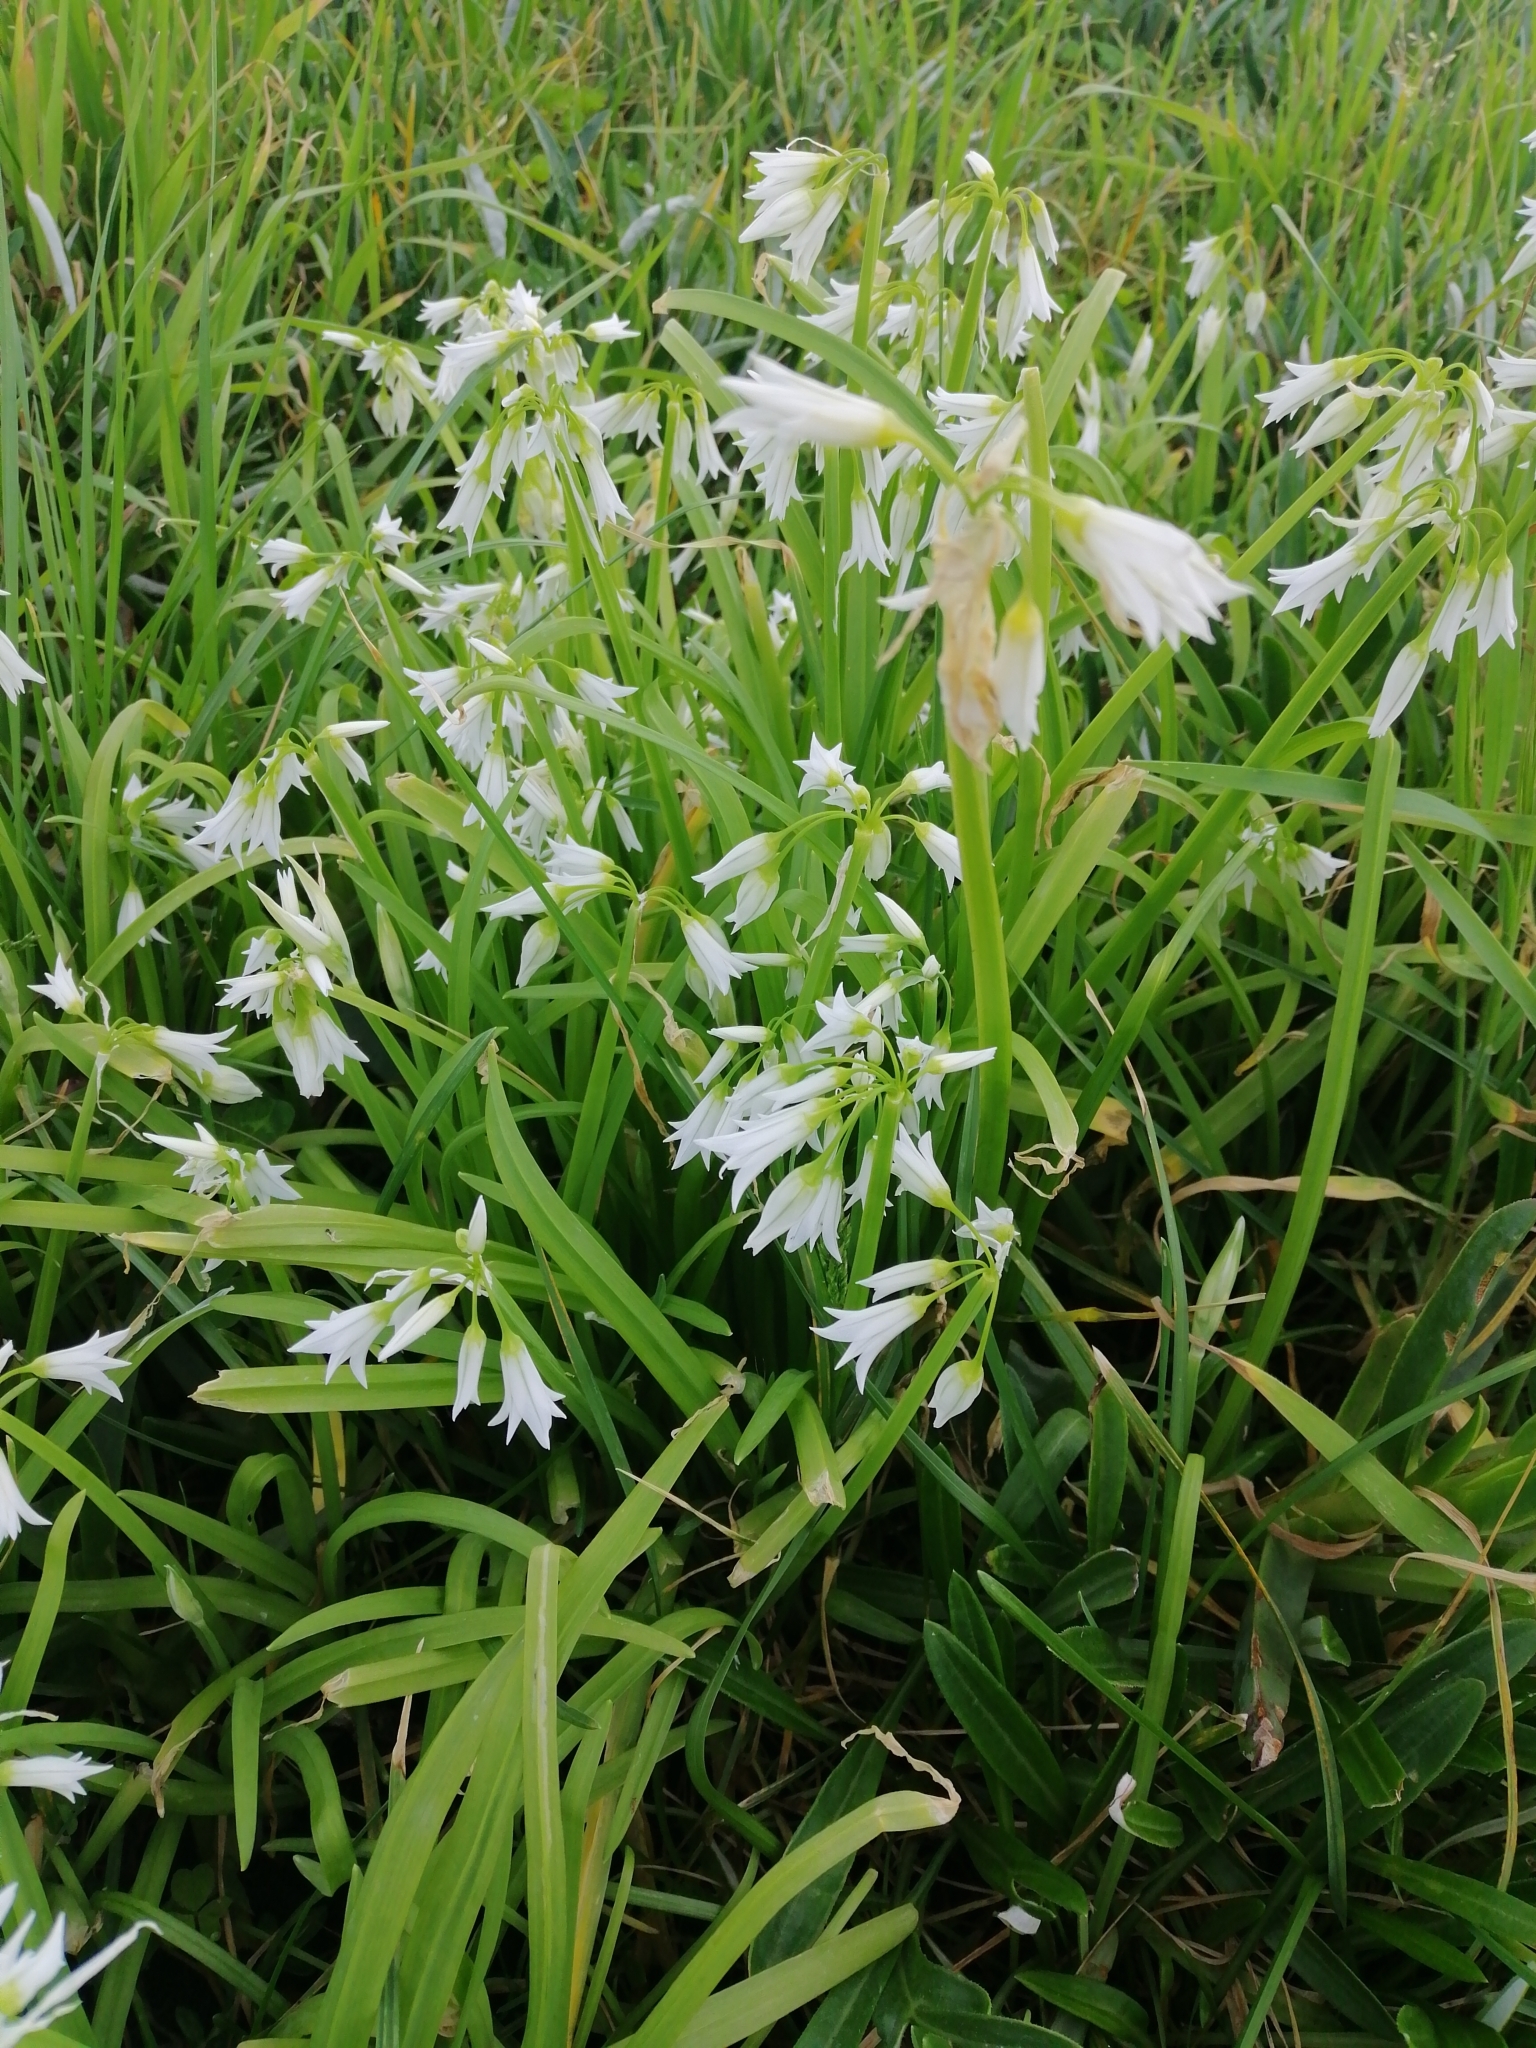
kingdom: Plantae
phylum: Tracheophyta
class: Liliopsida
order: Asparagales
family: Amaryllidaceae
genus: Allium
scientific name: Allium triquetrum
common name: Three-cornered garlic
